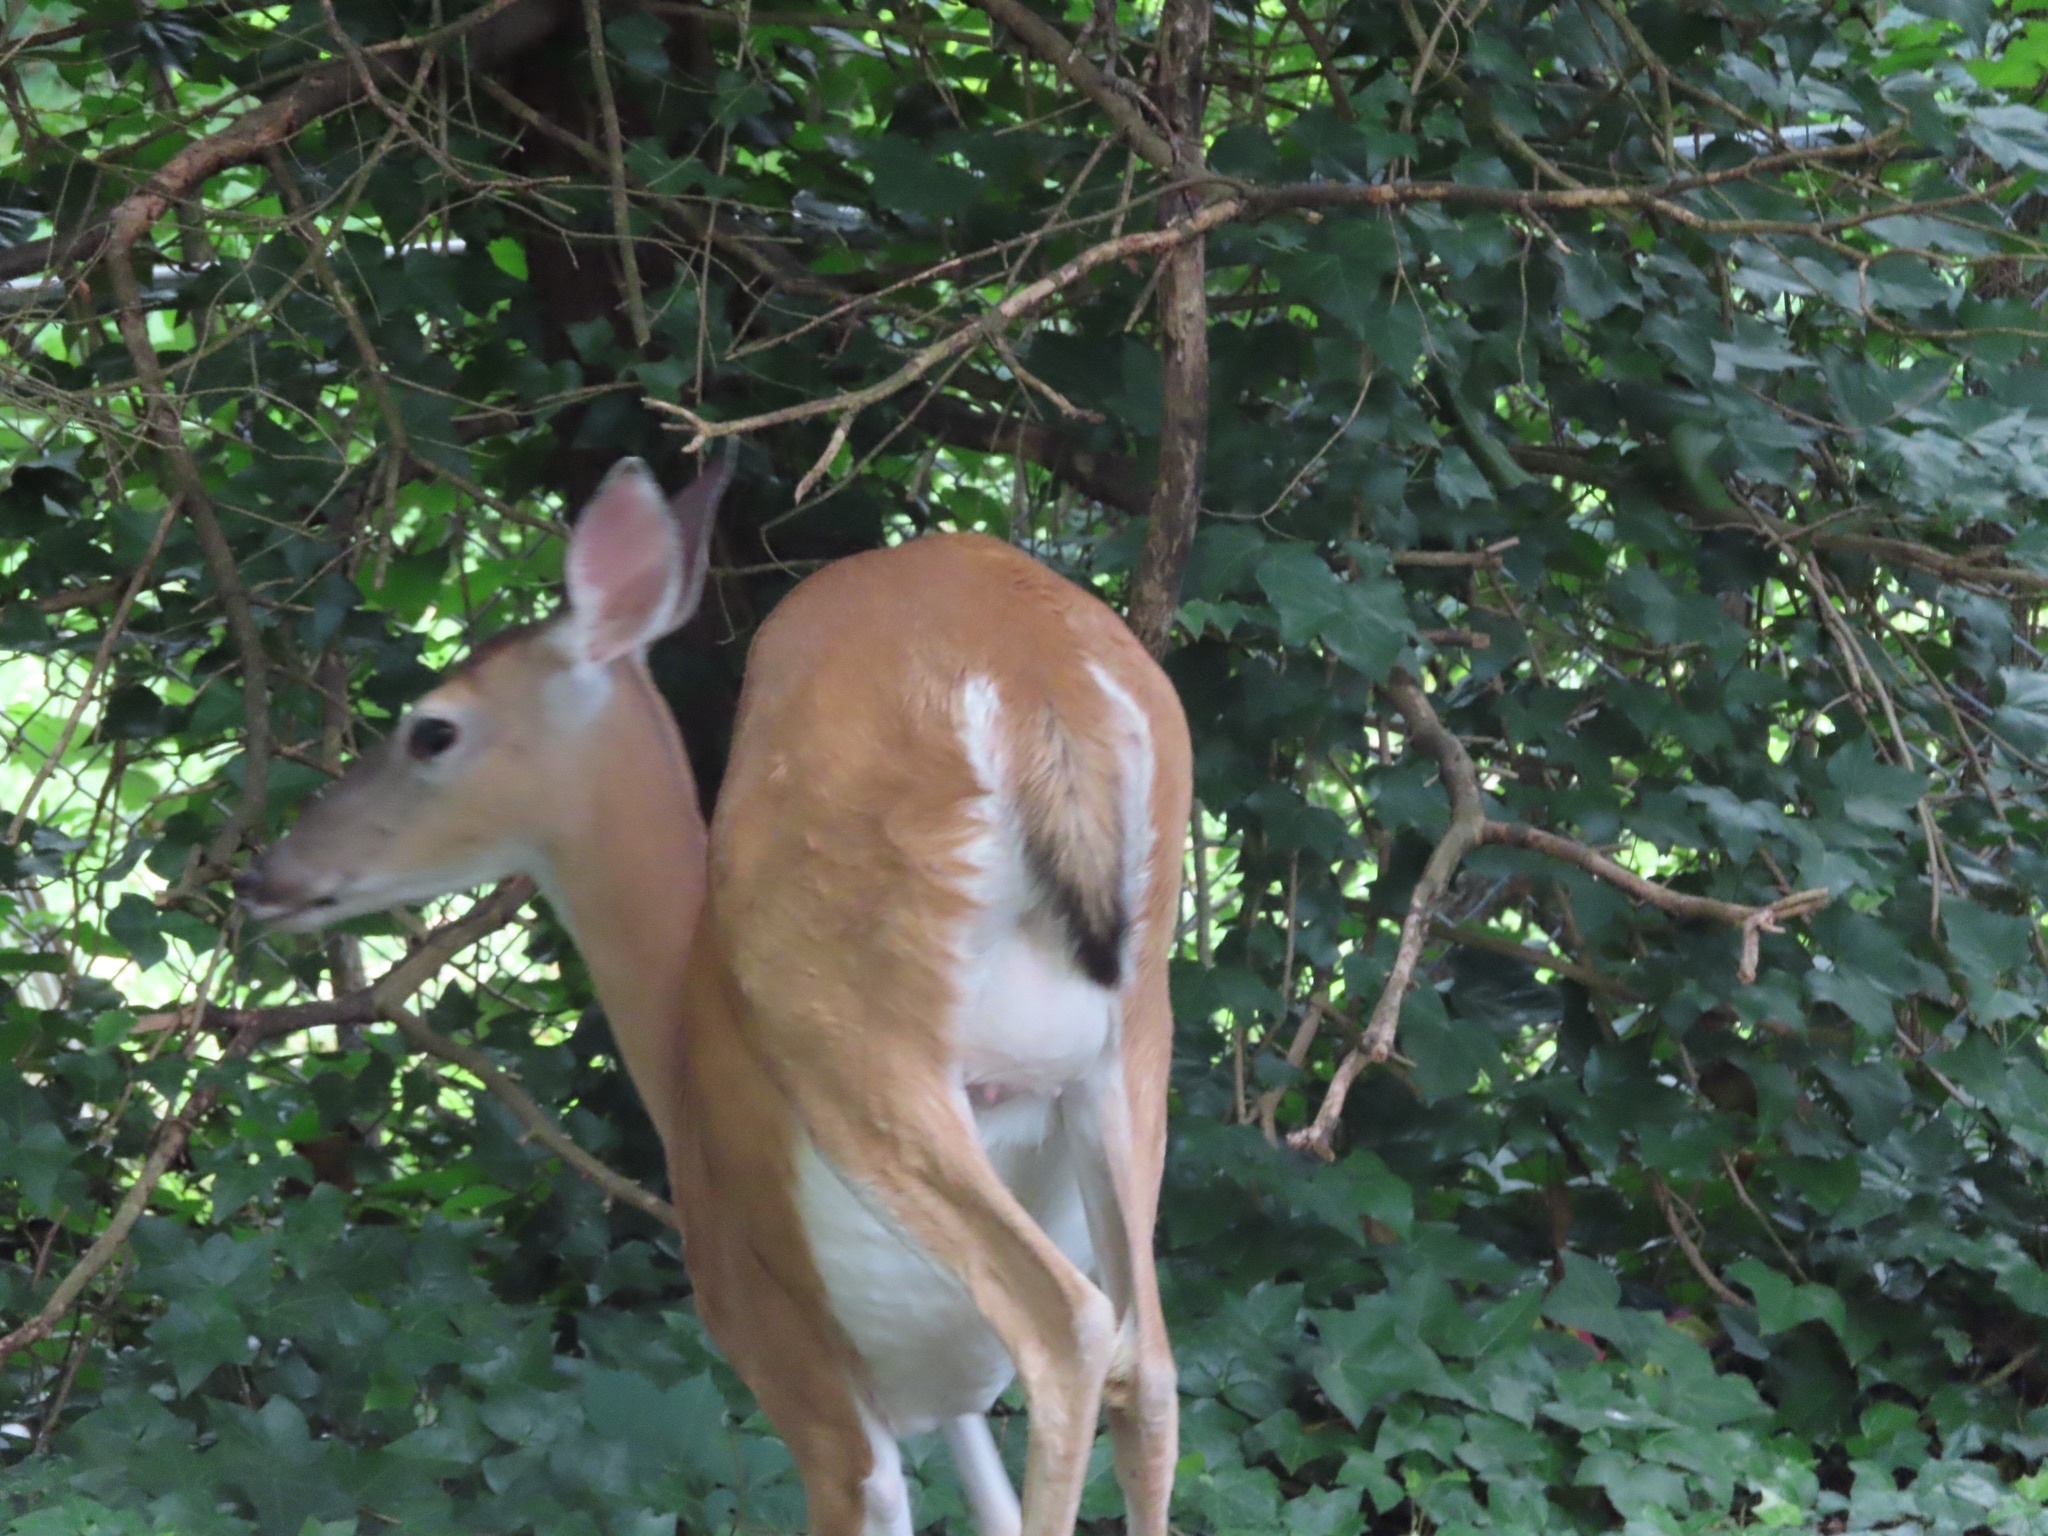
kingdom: Animalia
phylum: Chordata
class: Mammalia
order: Artiodactyla
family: Cervidae
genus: Odocoileus
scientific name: Odocoileus virginianus
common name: White-tailed deer
